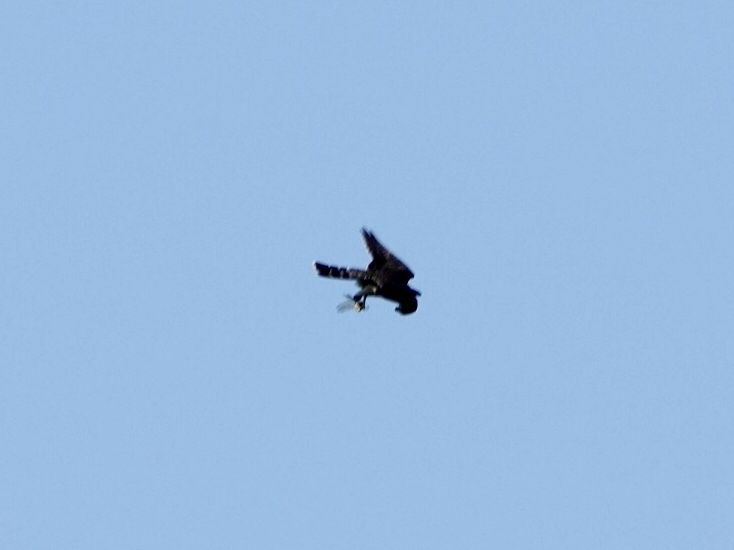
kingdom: Animalia
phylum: Chordata
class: Aves
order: Falconiformes
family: Falconidae
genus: Falco
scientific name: Falco columbarius
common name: Merlin
